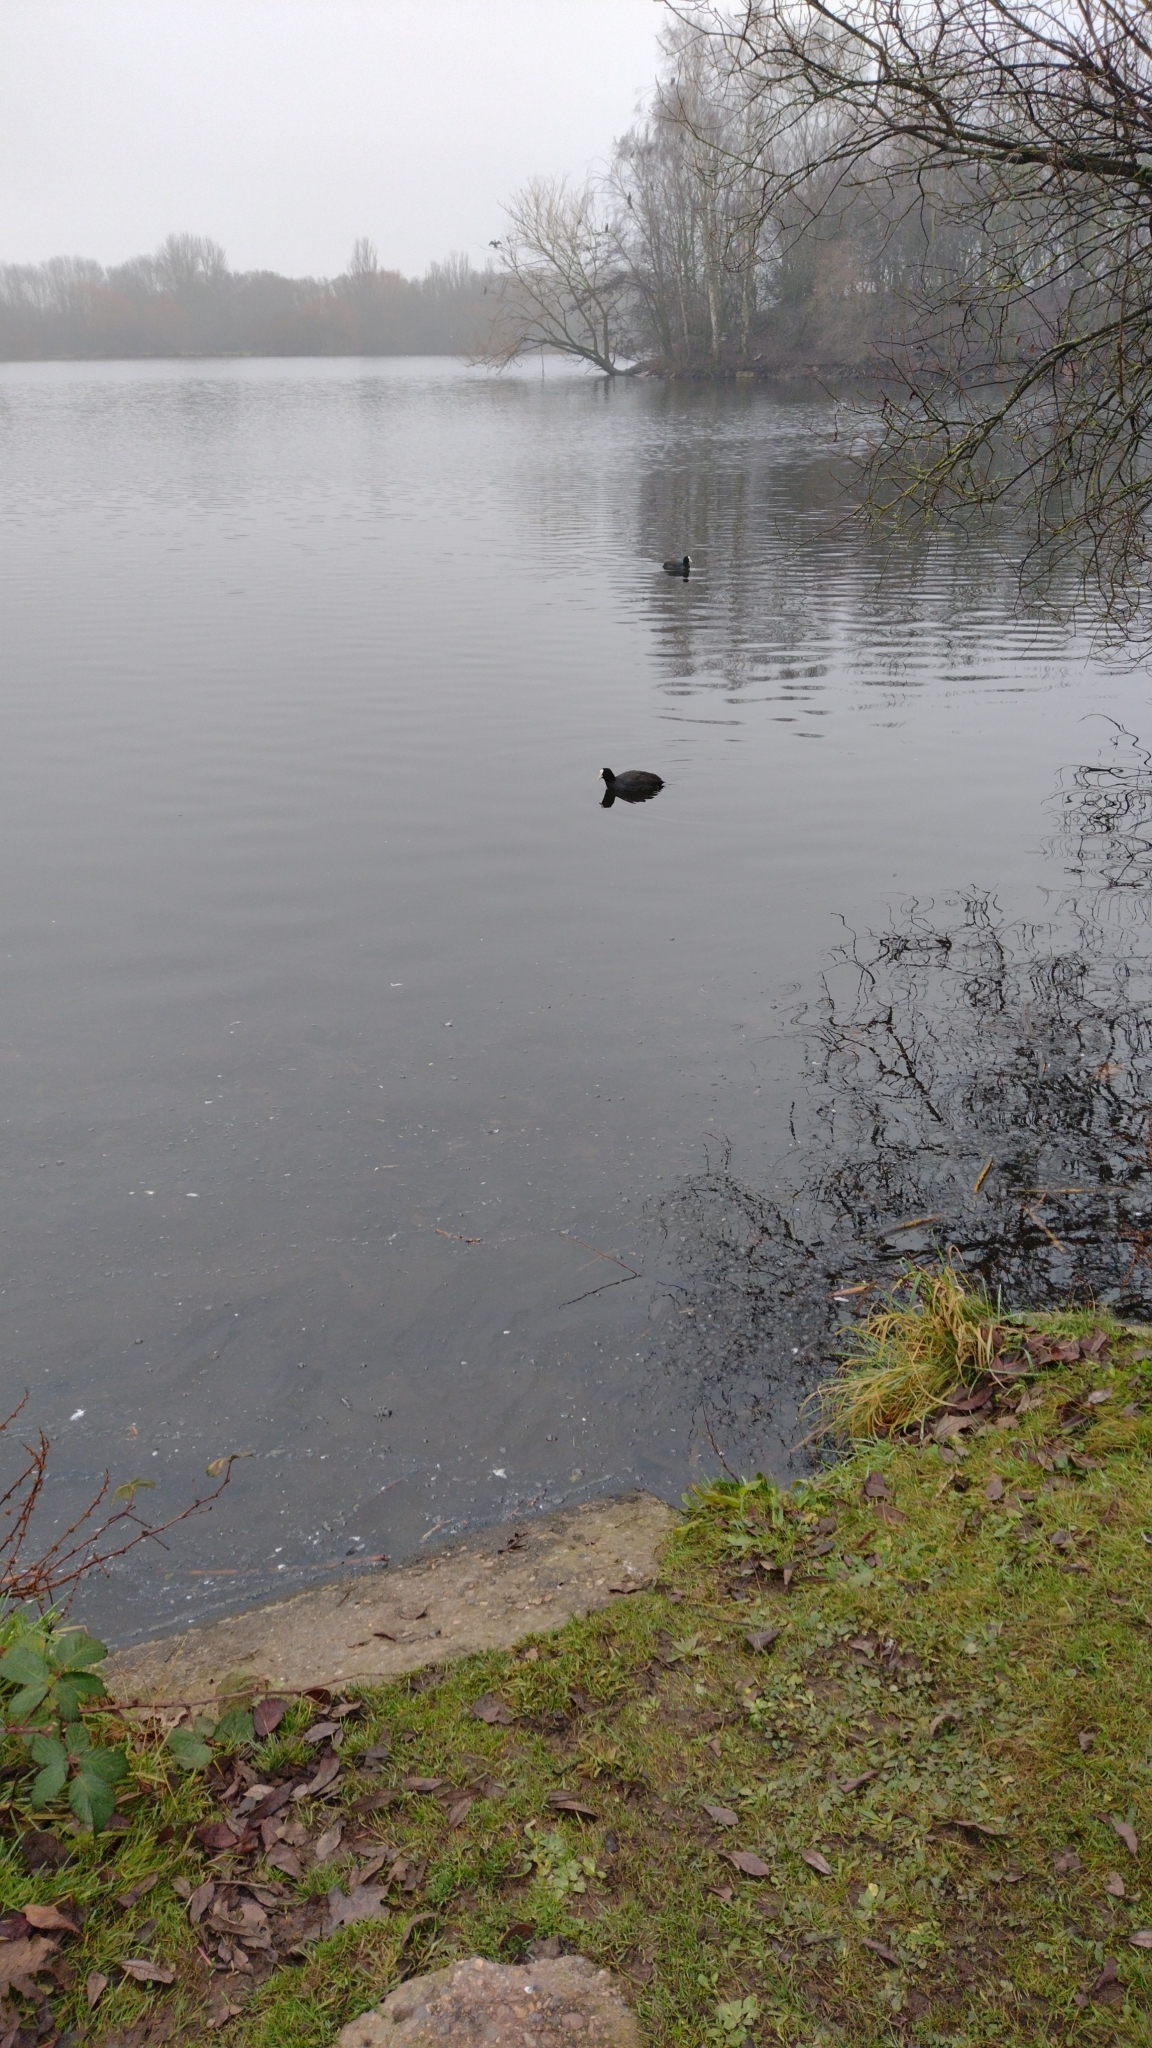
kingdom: Animalia
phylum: Chordata
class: Aves
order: Gruiformes
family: Rallidae
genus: Fulica
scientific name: Fulica atra
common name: Eurasian coot
